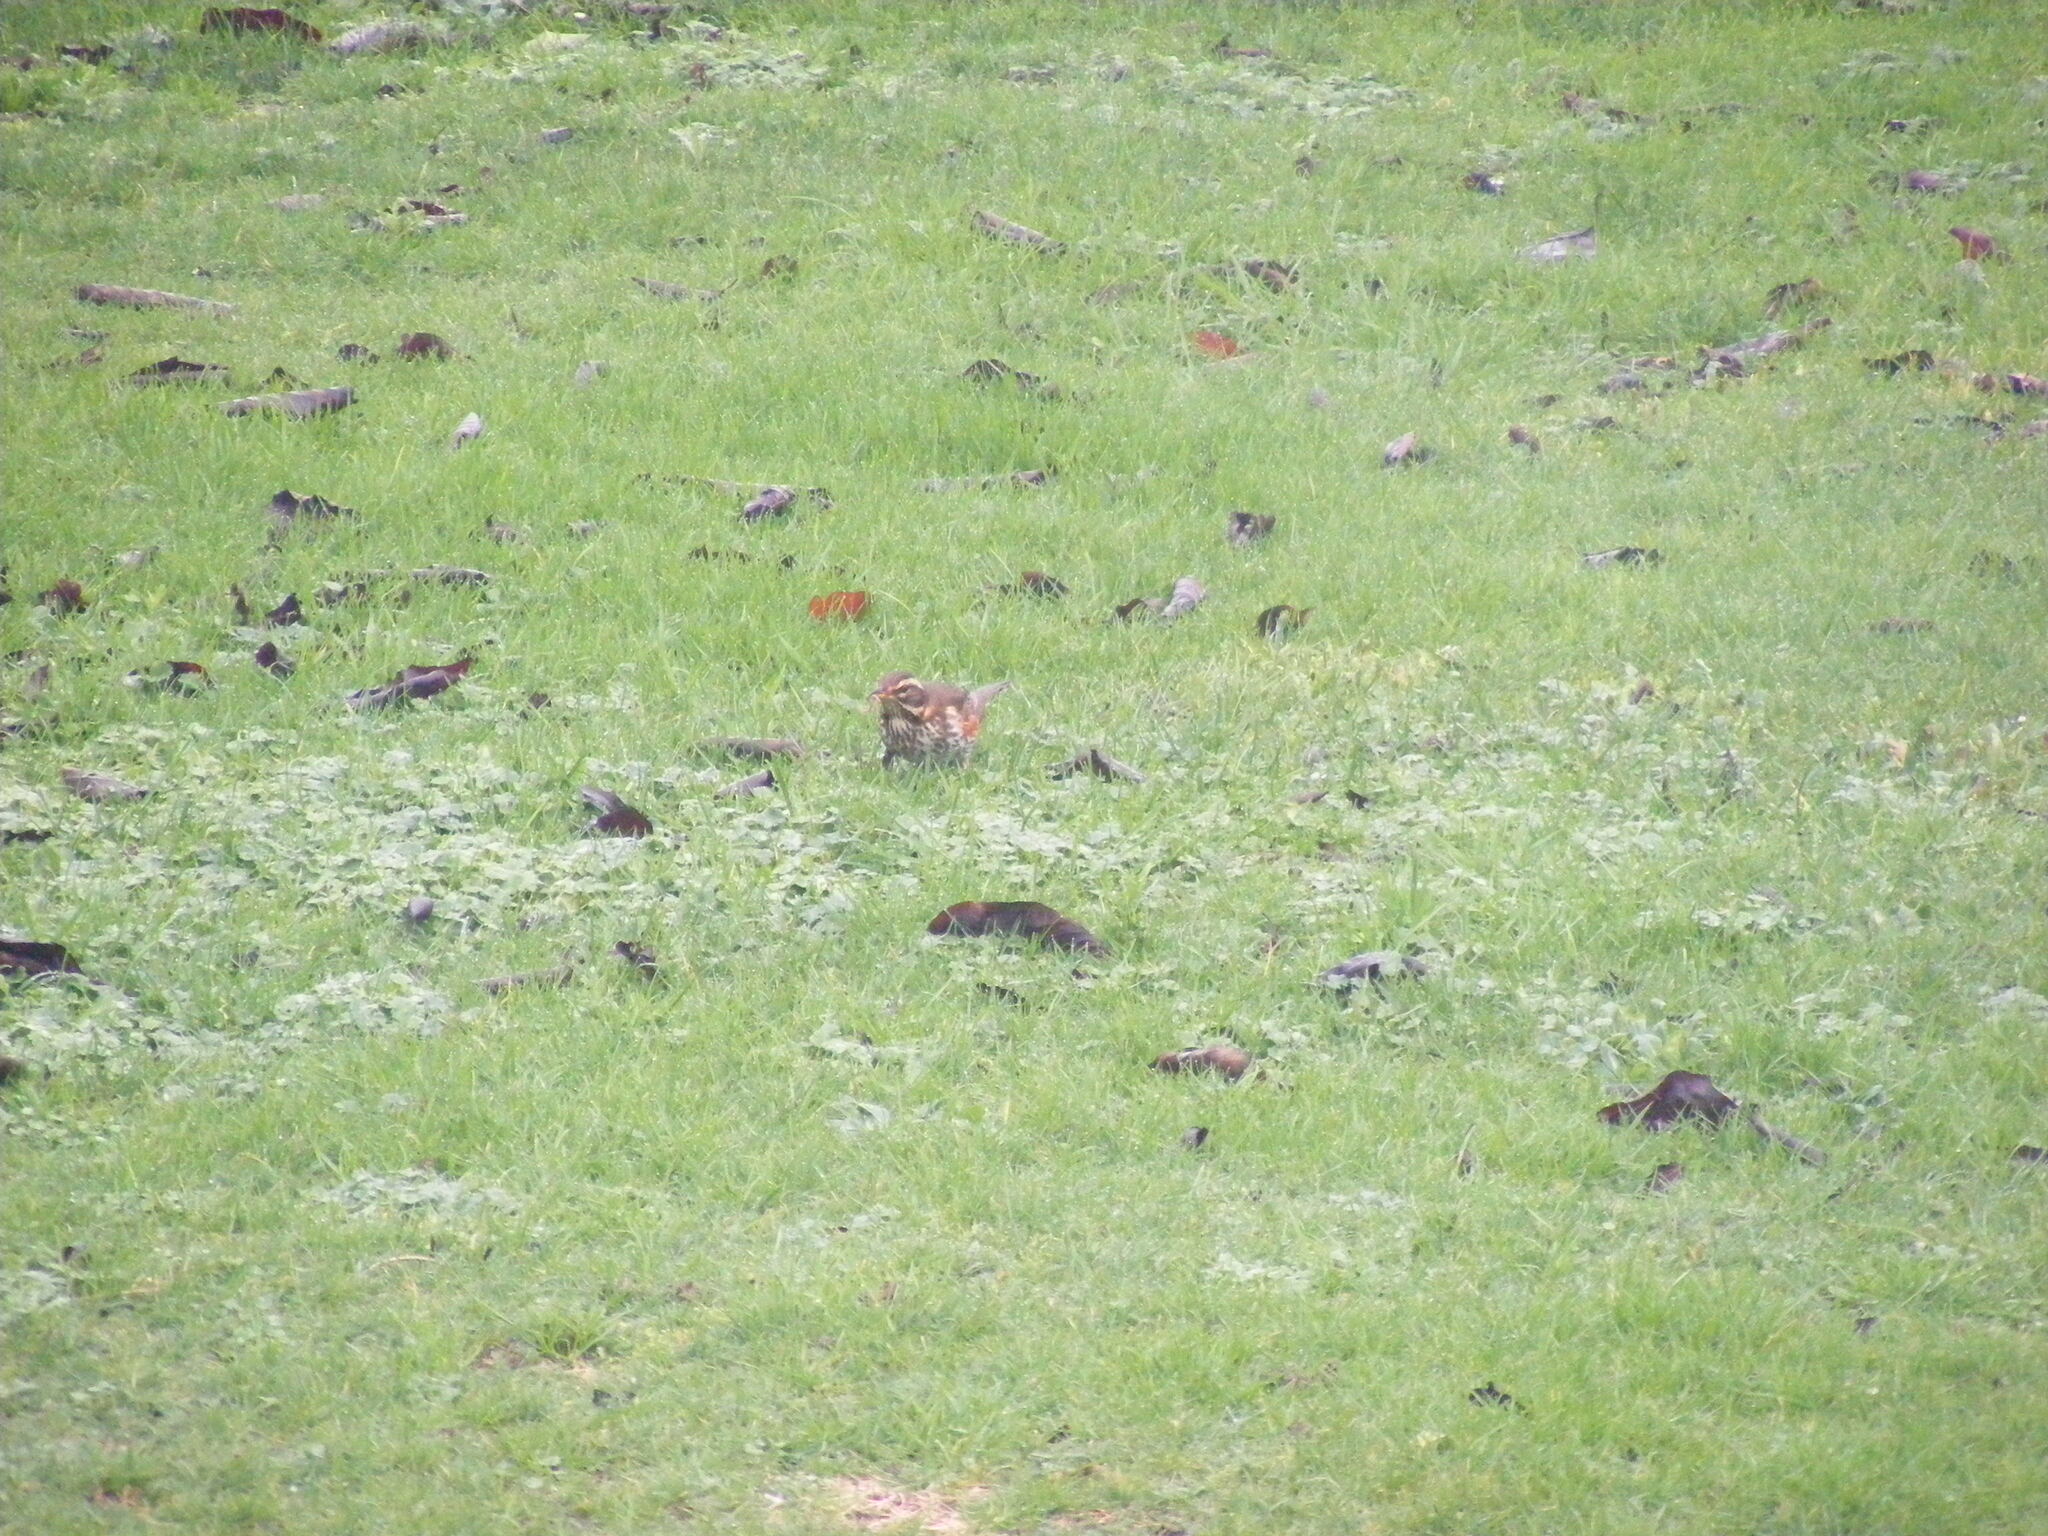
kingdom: Animalia
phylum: Chordata
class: Aves
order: Passeriformes
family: Turdidae
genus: Turdus
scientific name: Turdus iliacus
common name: Redwing
